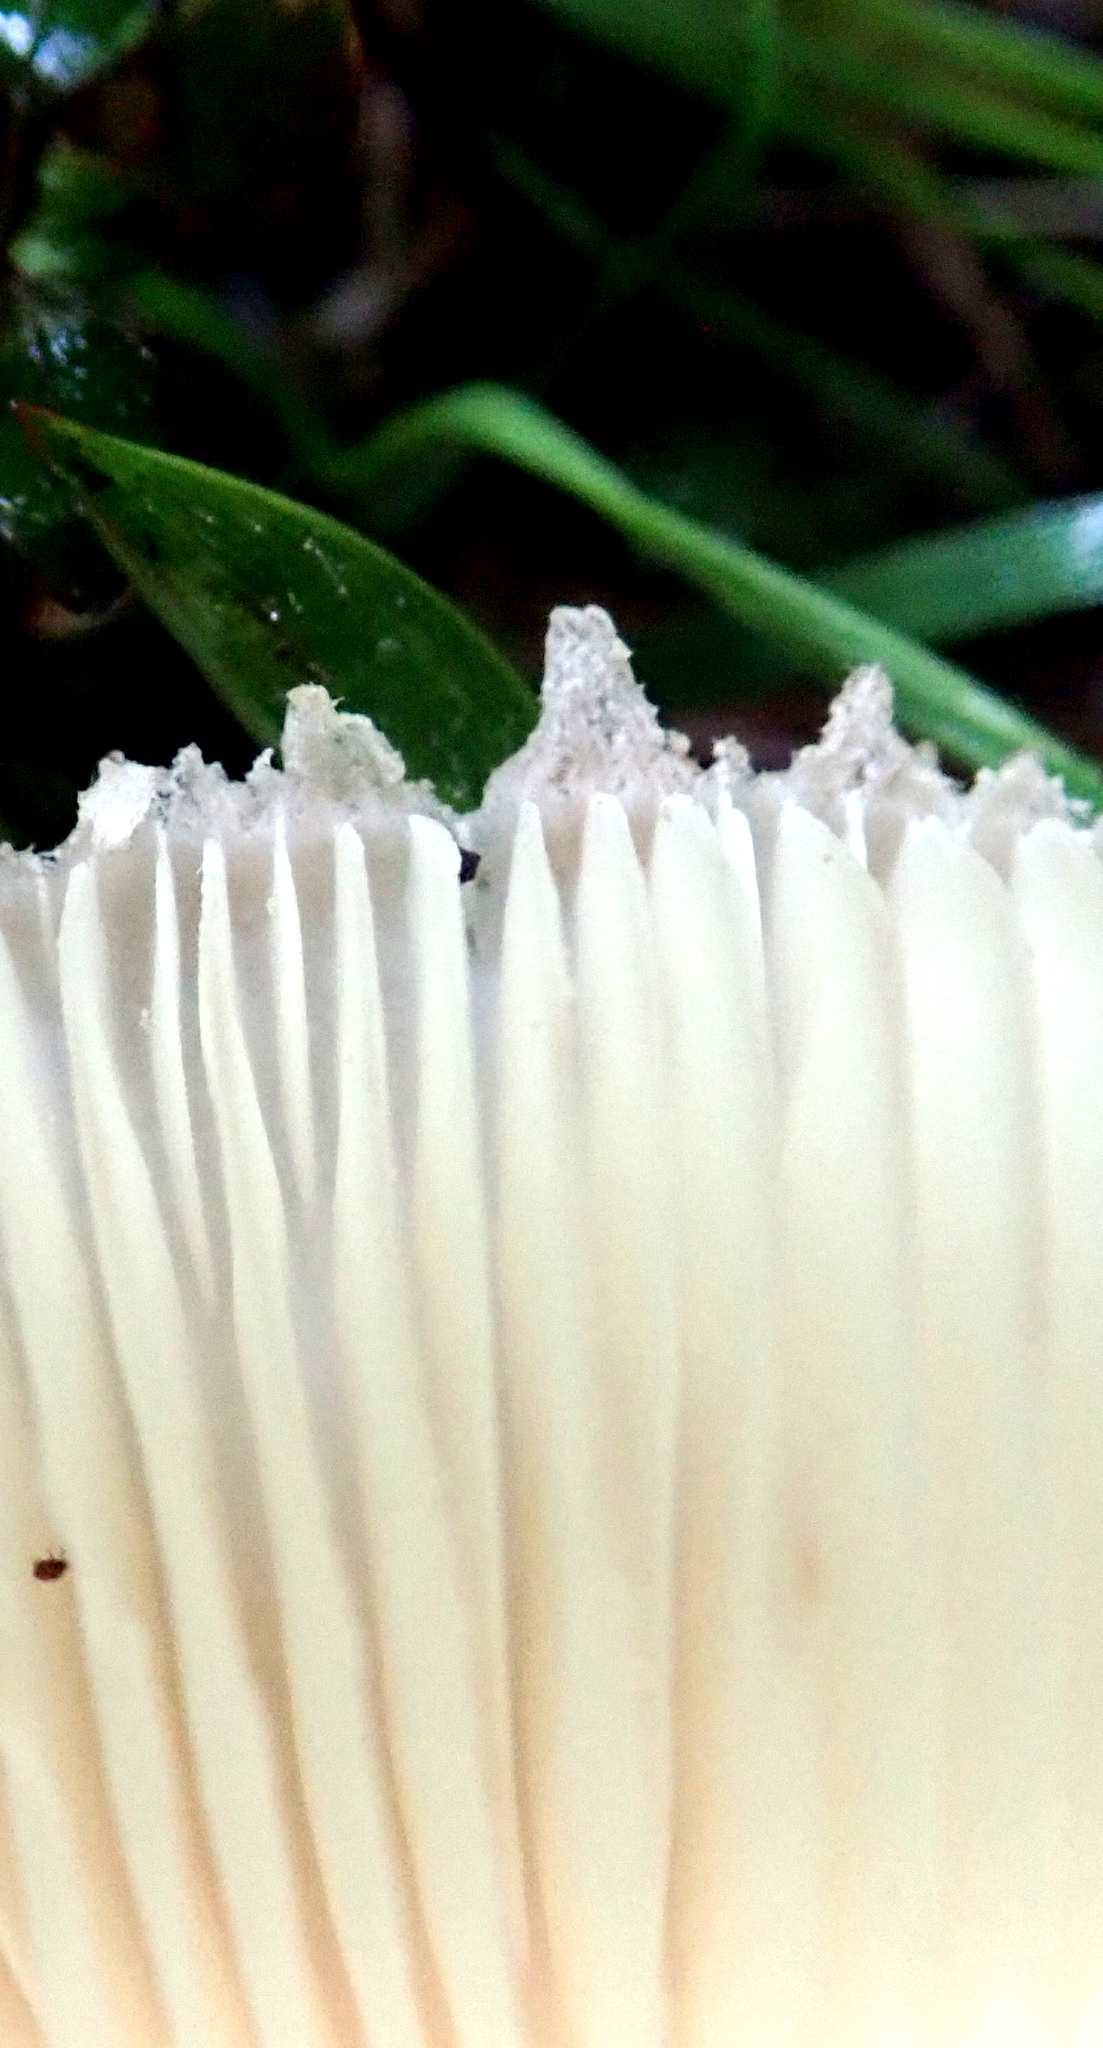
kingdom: Fungi
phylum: Basidiomycota
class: Agaricomycetes
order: Agaricales
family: Agaricaceae
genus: Macrolepiota
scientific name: Macrolepiota clelandii
